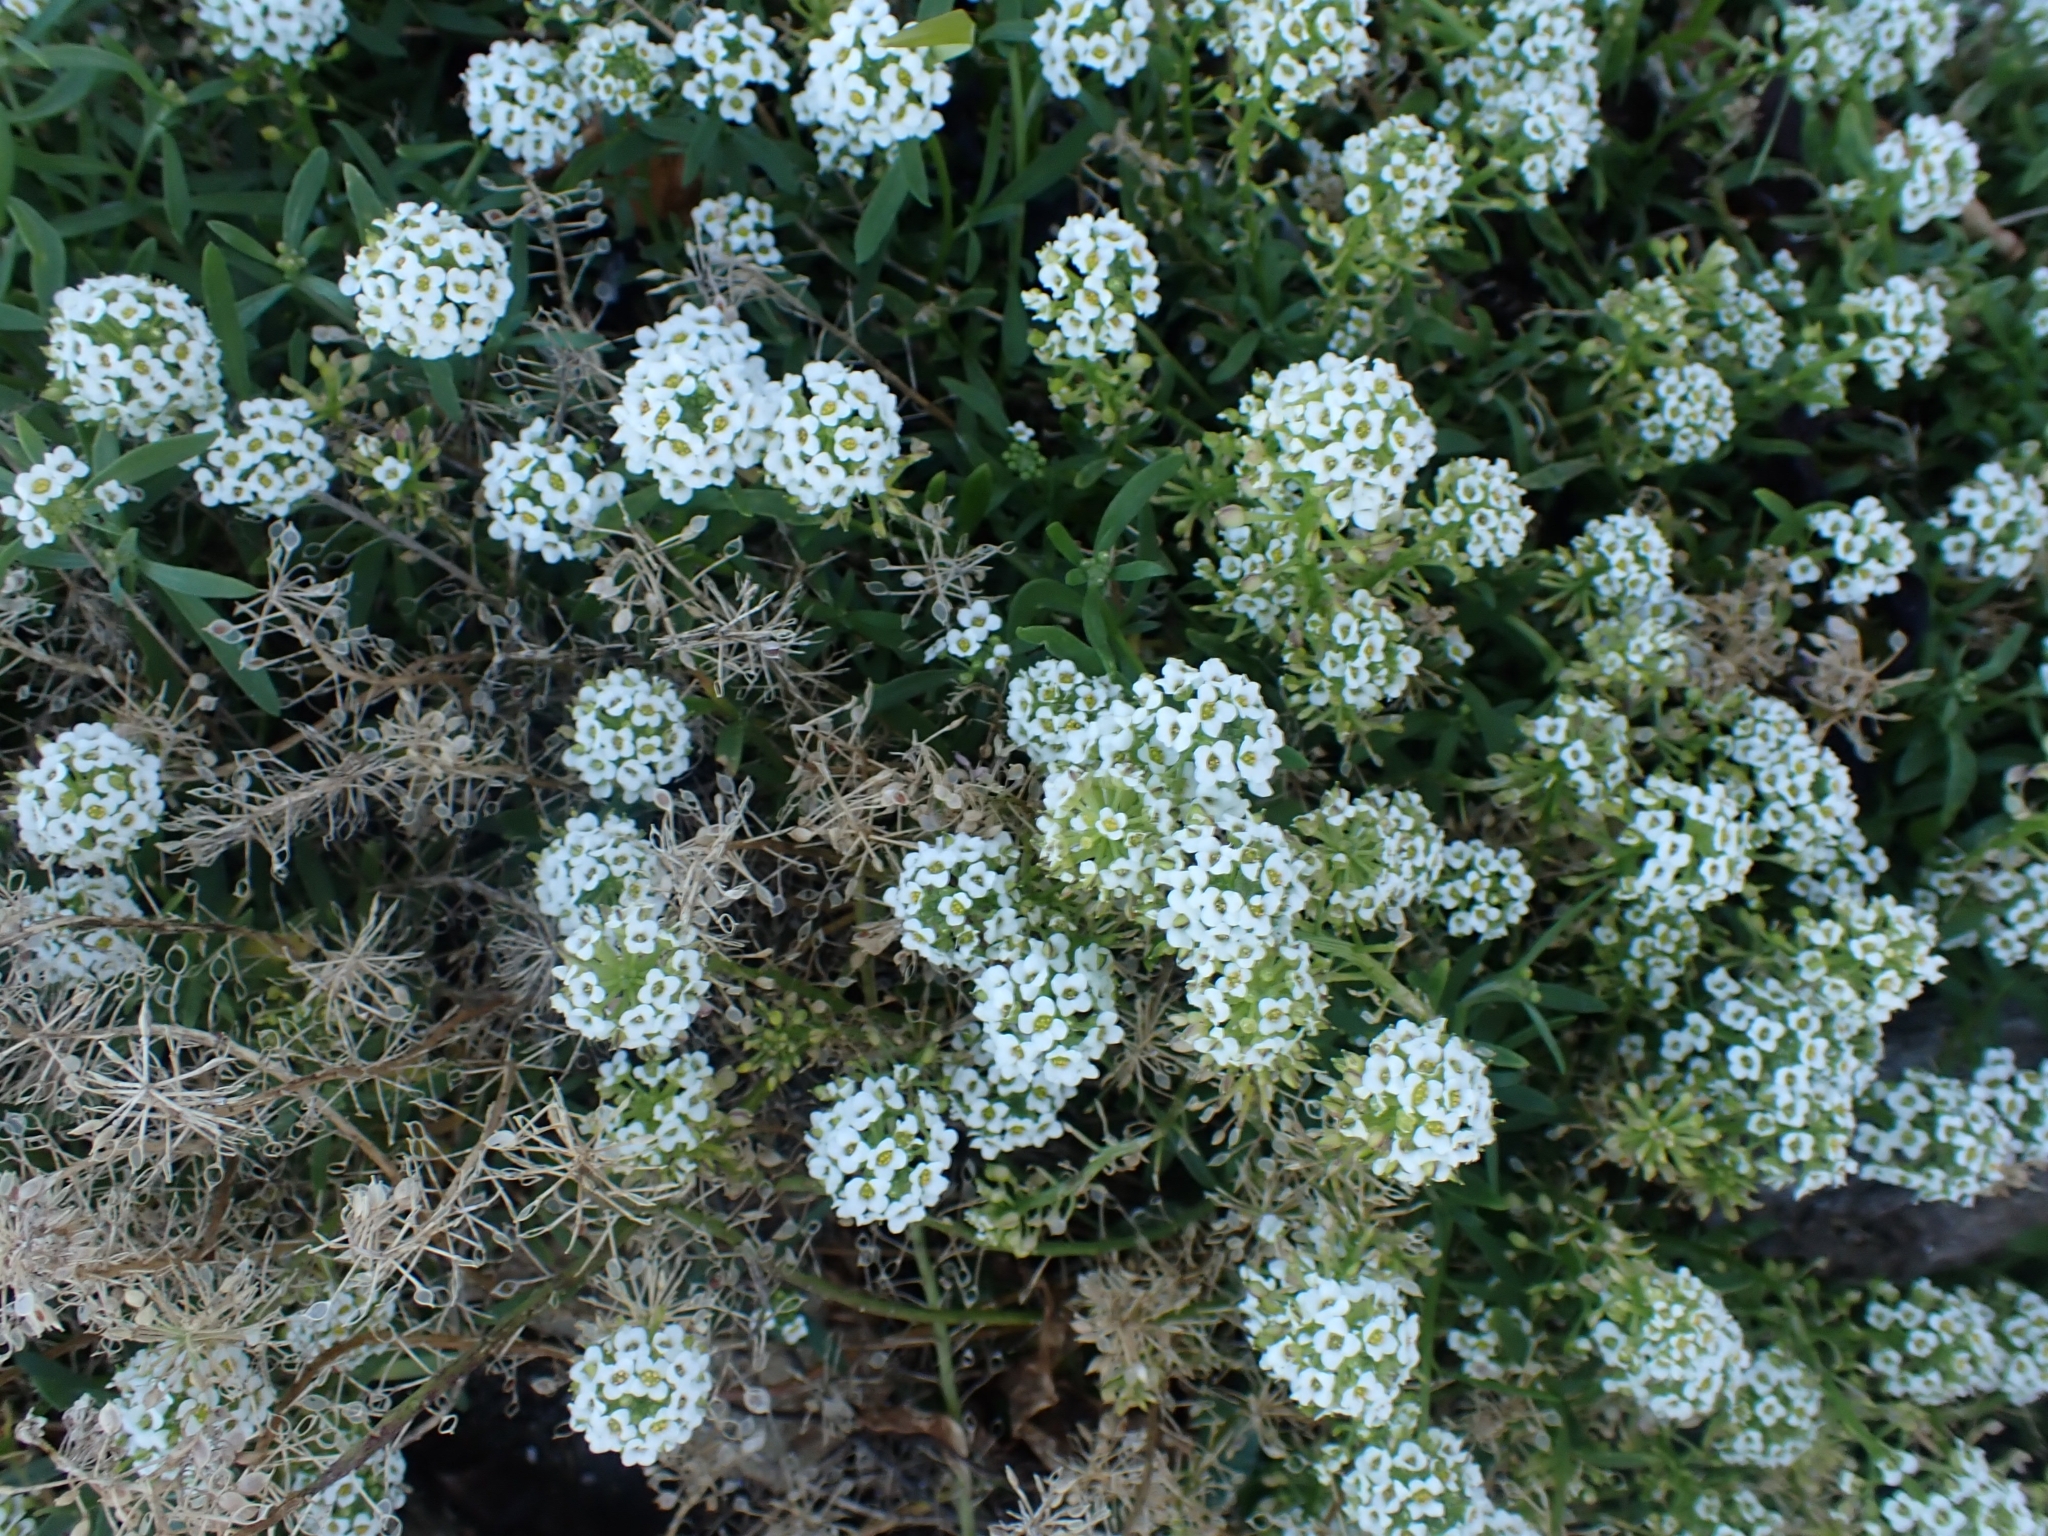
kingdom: Plantae
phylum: Tracheophyta
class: Magnoliopsida
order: Brassicales
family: Brassicaceae
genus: Lobularia
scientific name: Lobularia maritima
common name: Sweet alison
